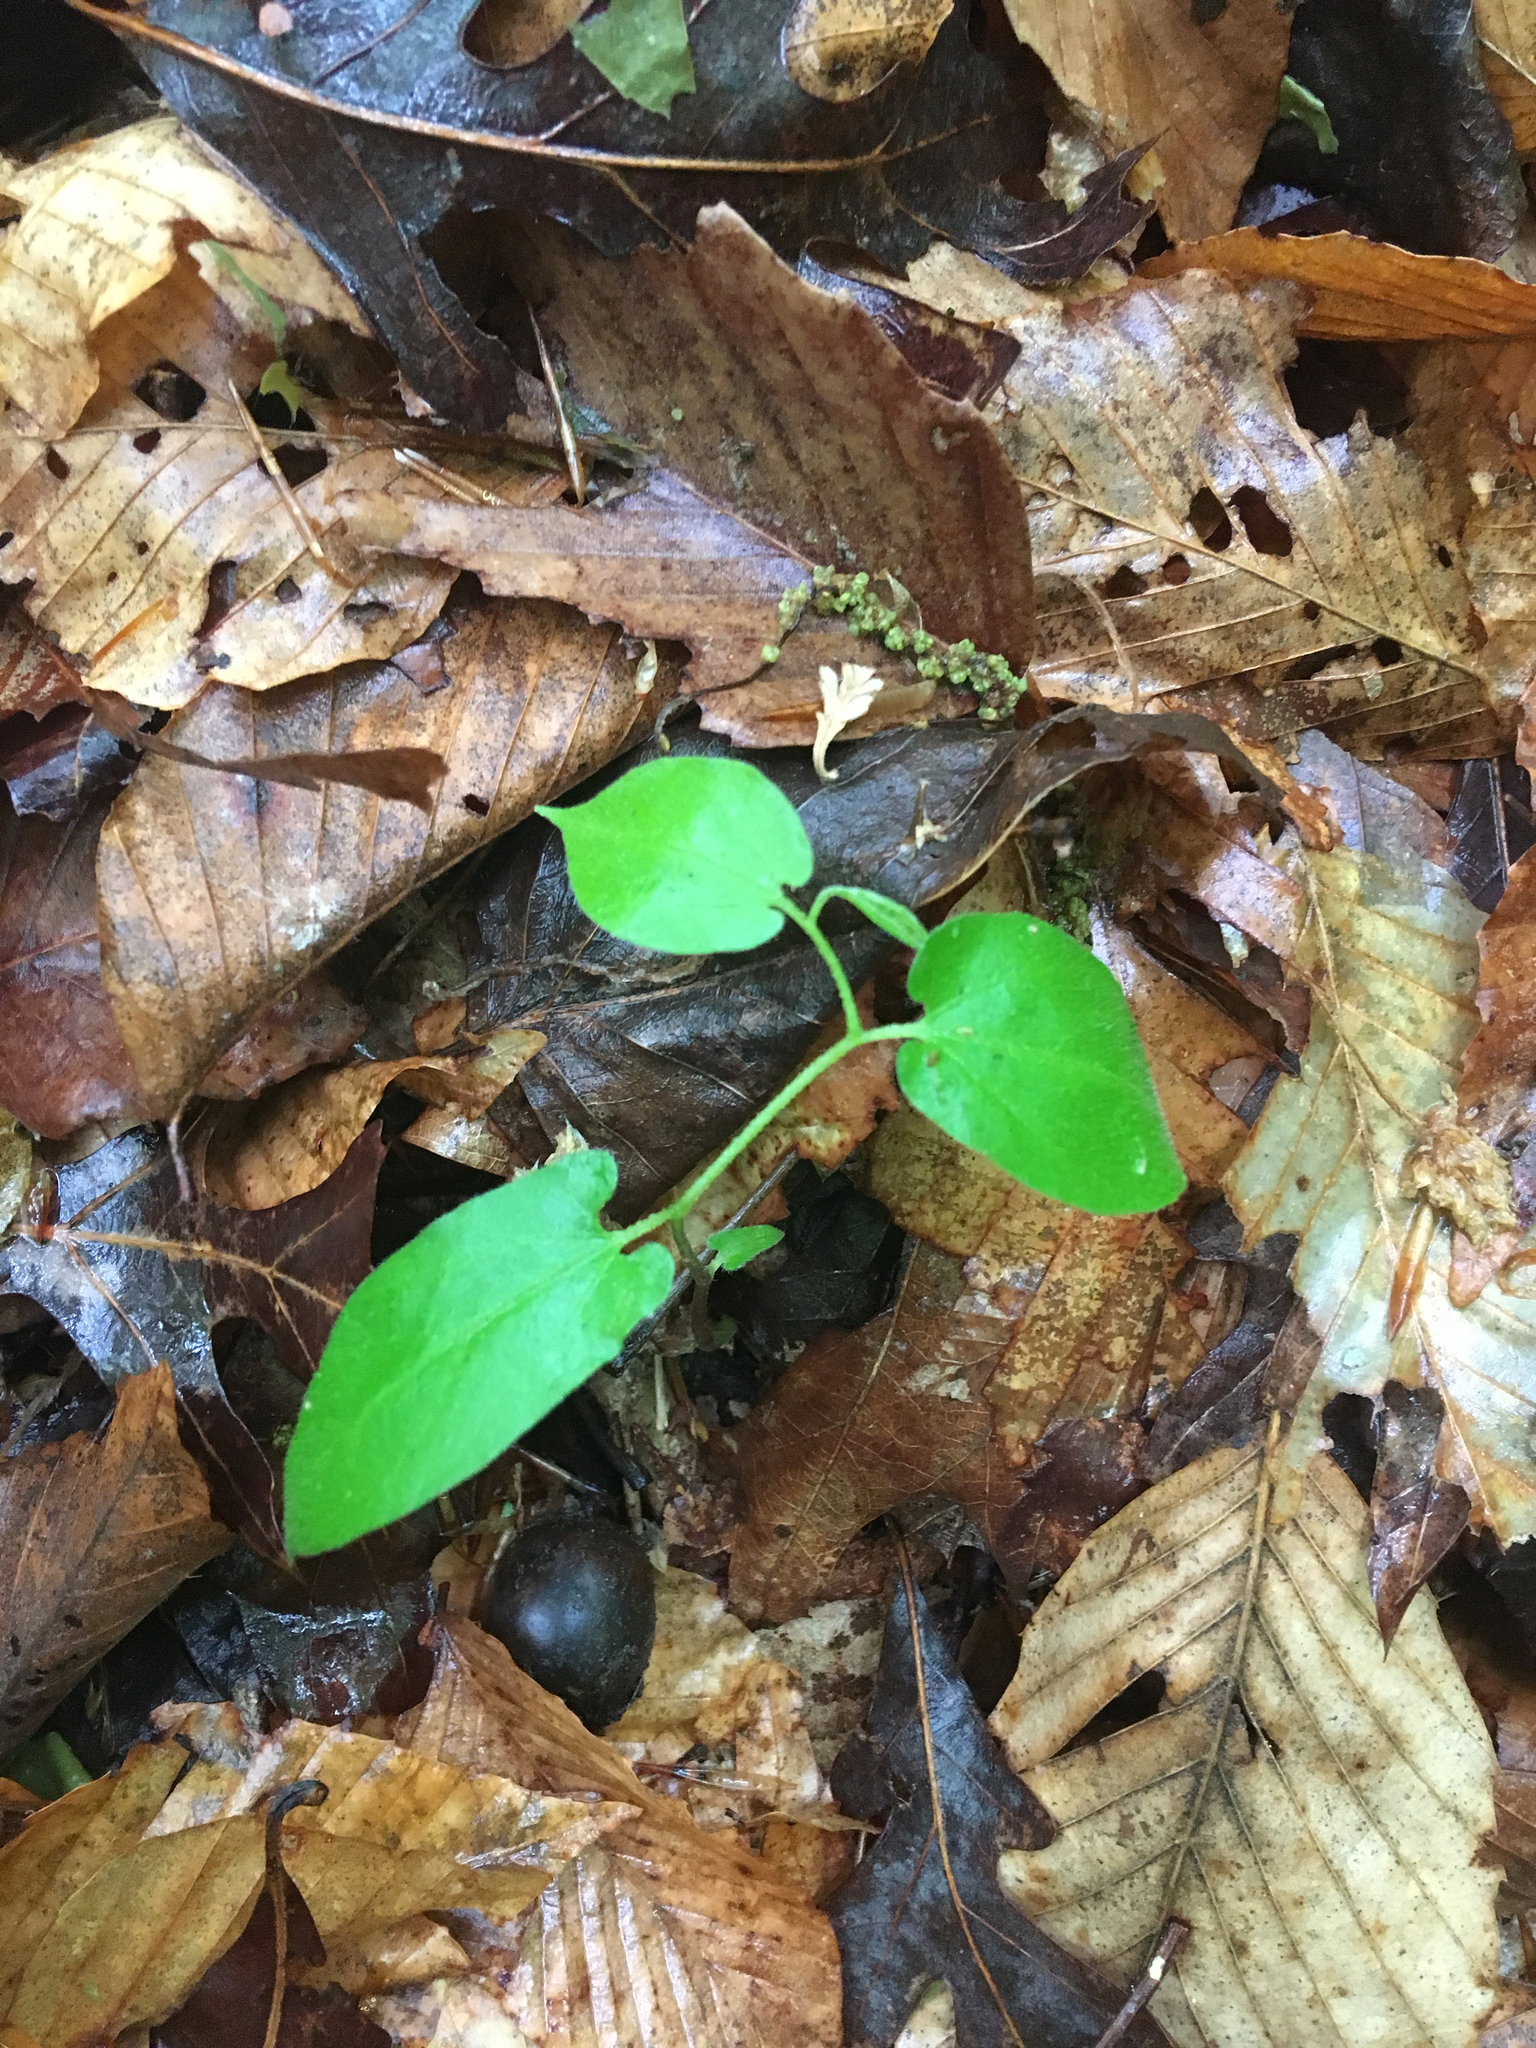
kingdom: Plantae
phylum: Tracheophyta
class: Magnoliopsida
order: Piperales
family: Aristolochiaceae
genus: Endodeca
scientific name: Endodeca serpentaria
